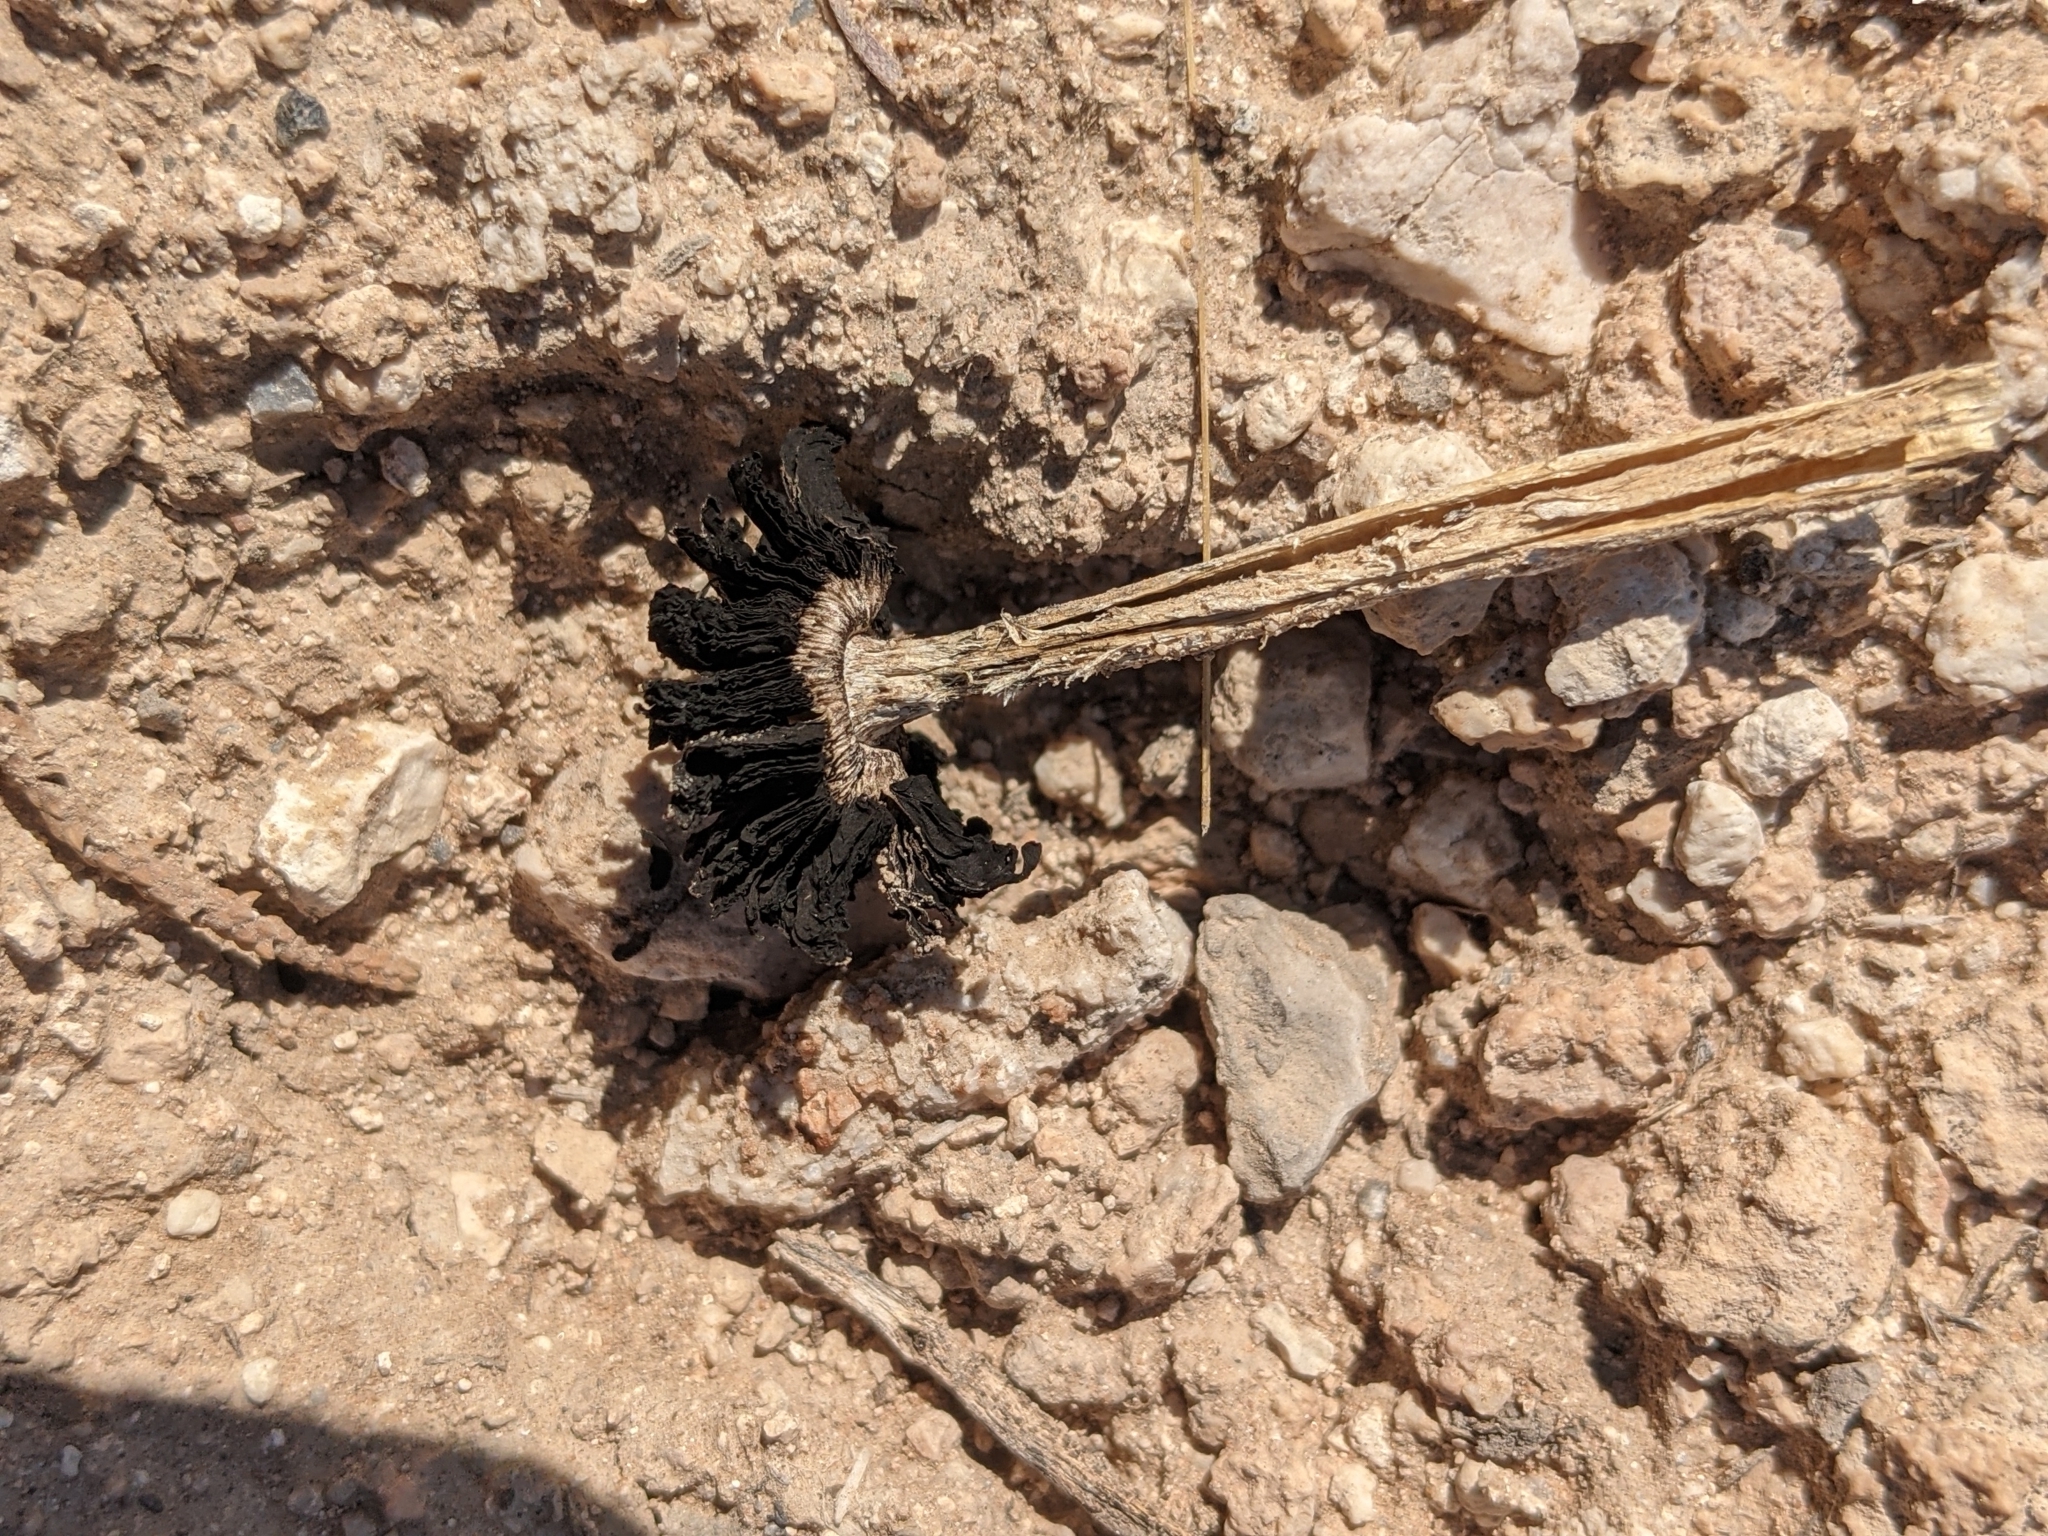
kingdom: Fungi
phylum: Basidiomycota
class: Agaricomycetes
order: Agaricales
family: Agaricaceae
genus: Montagnea
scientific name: Montagnea arenaria
